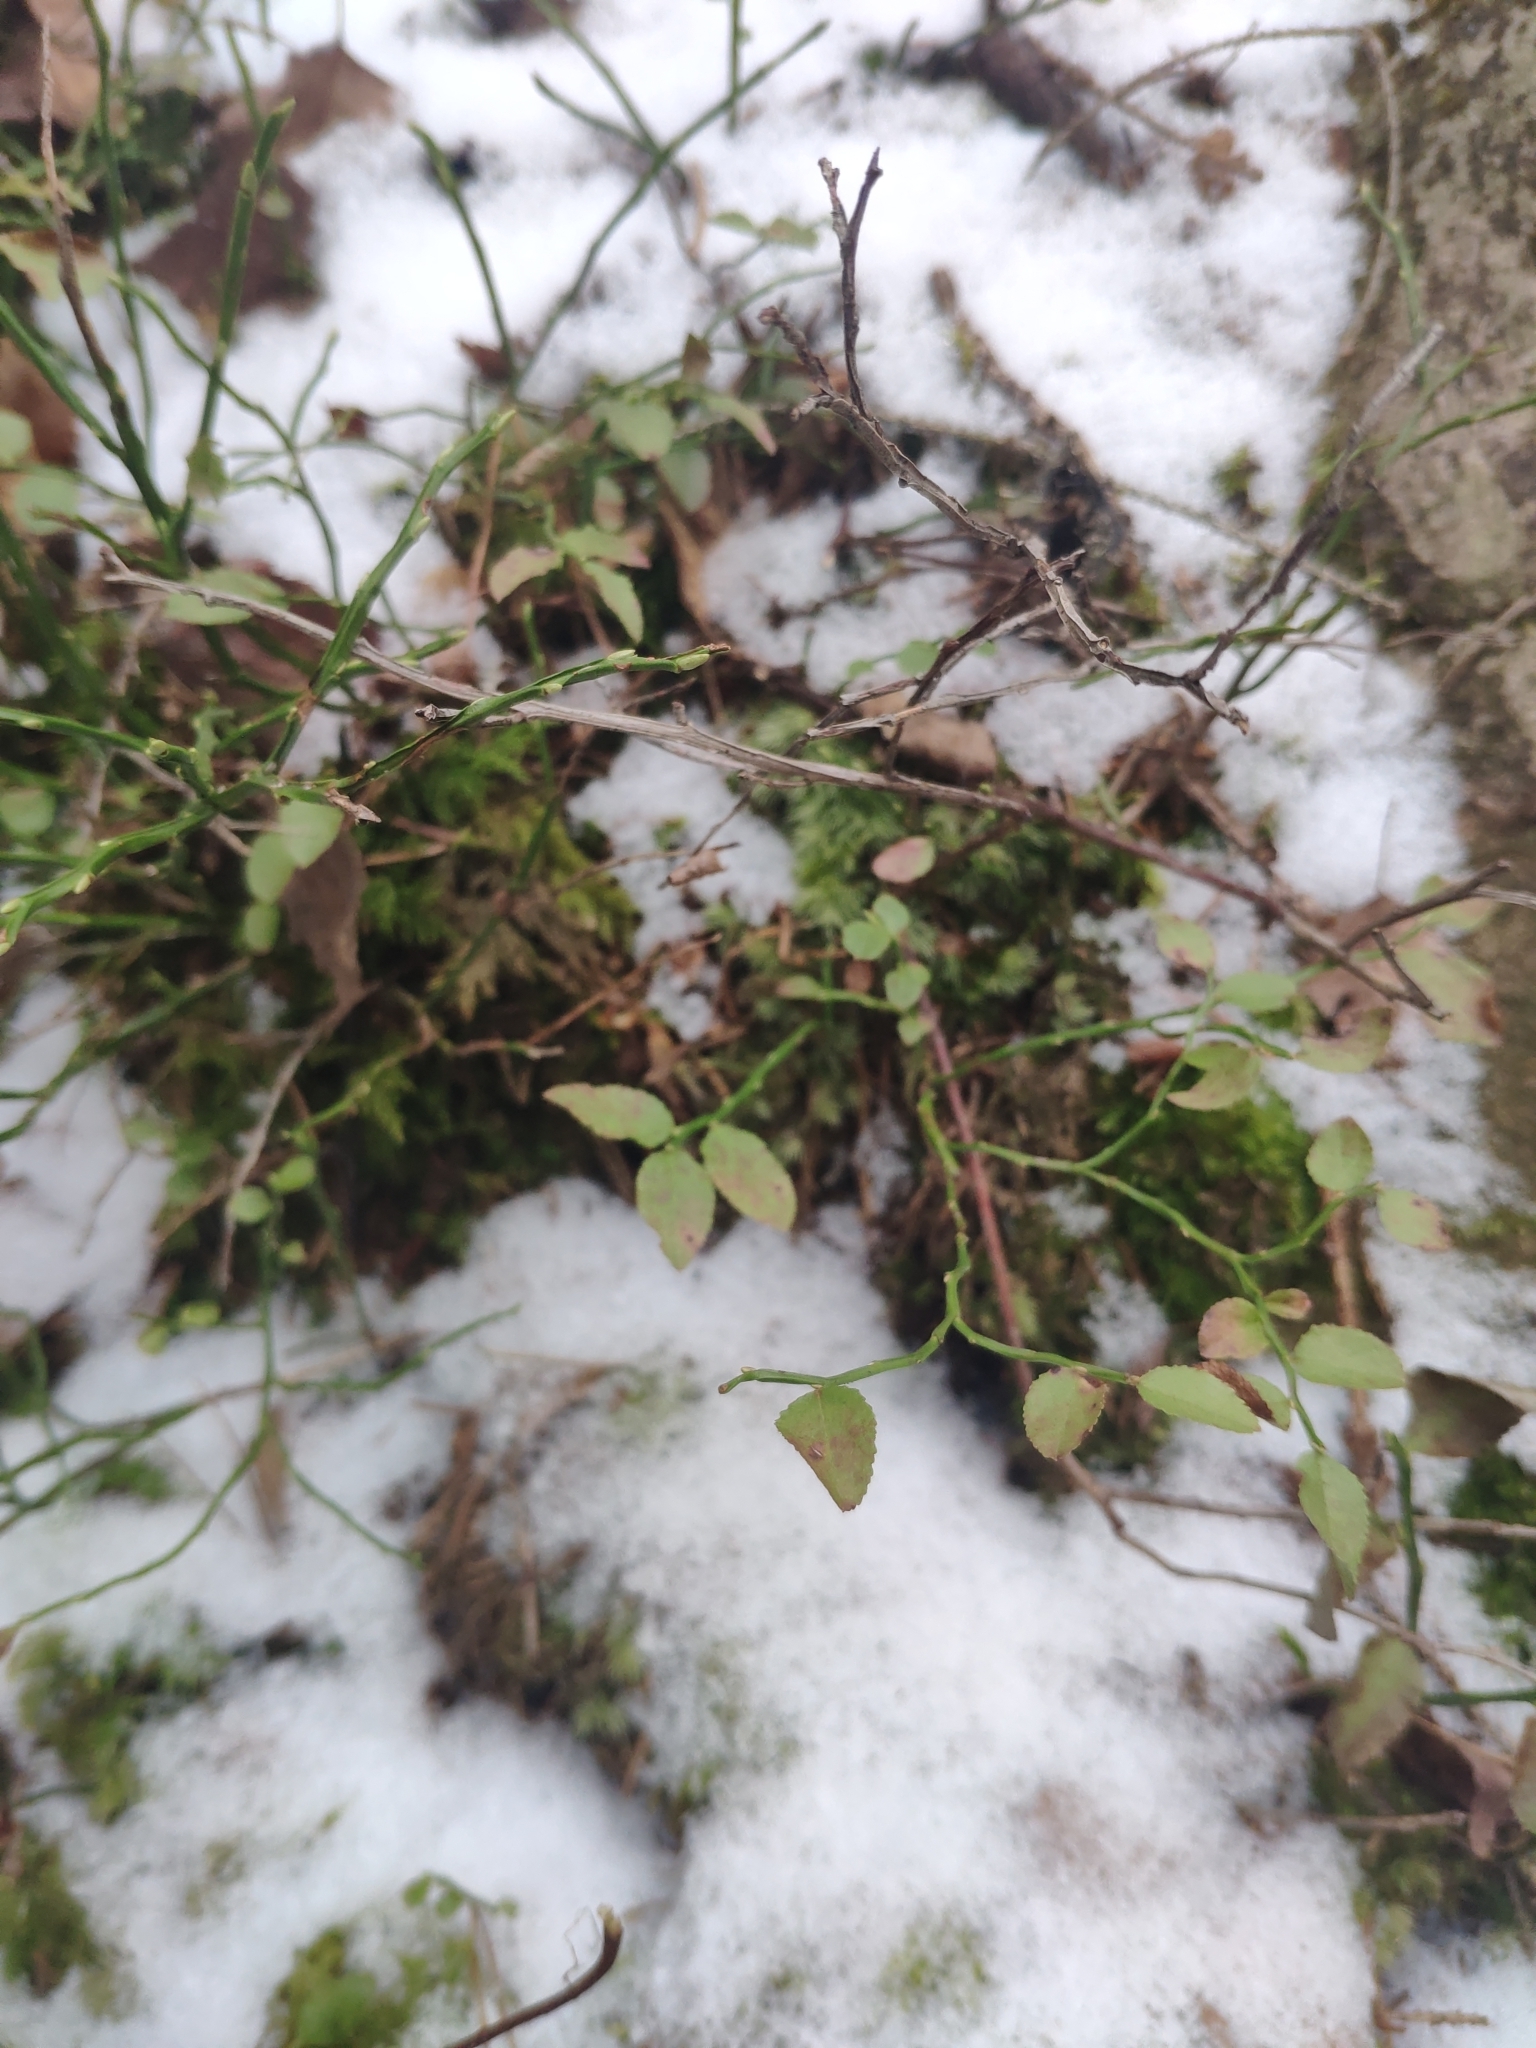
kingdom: Plantae
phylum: Tracheophyta
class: Magnoliopsida
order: Ericales
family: Ericaceae
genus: Vaccinium
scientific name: Vaccinium myrtillus
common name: Bilberry
